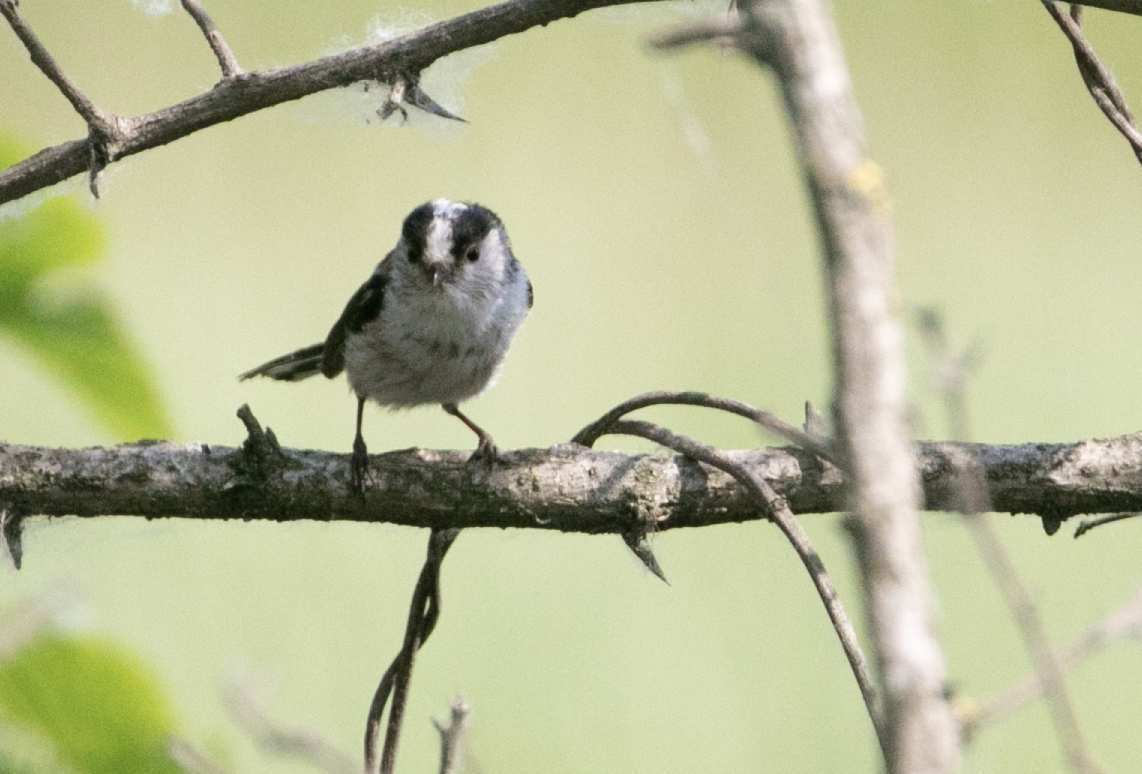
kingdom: Animalia
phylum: Chordata
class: Aves
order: Passeriformes
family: Aegithalidae
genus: Aegithalos
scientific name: Aegithalos caudatus
